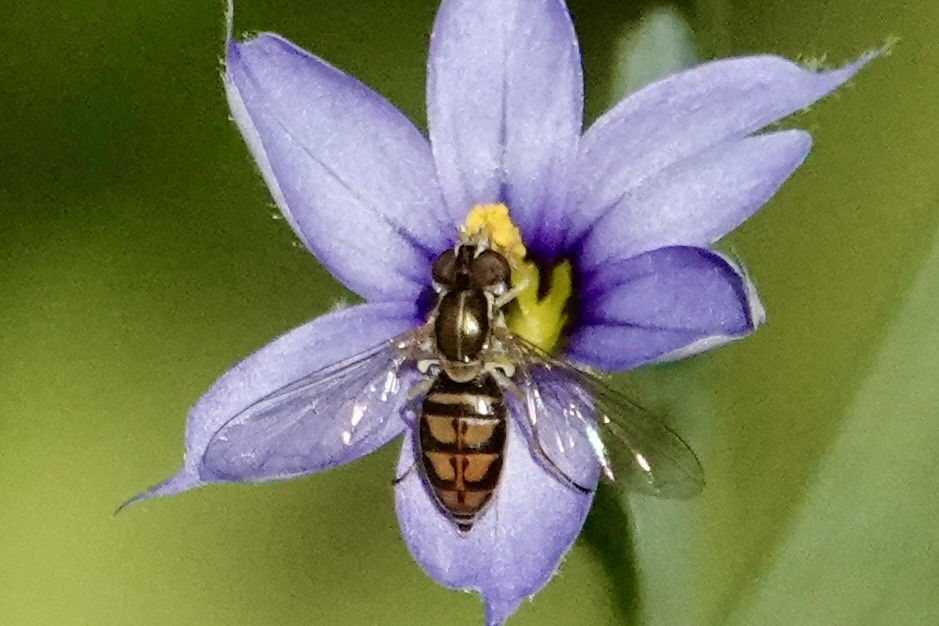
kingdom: Animalia
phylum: Arthropoda
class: Insecta
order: Diptera
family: Syrphidae
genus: Toxomerus
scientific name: Toxomerus marginatus
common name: Syrphid fly
